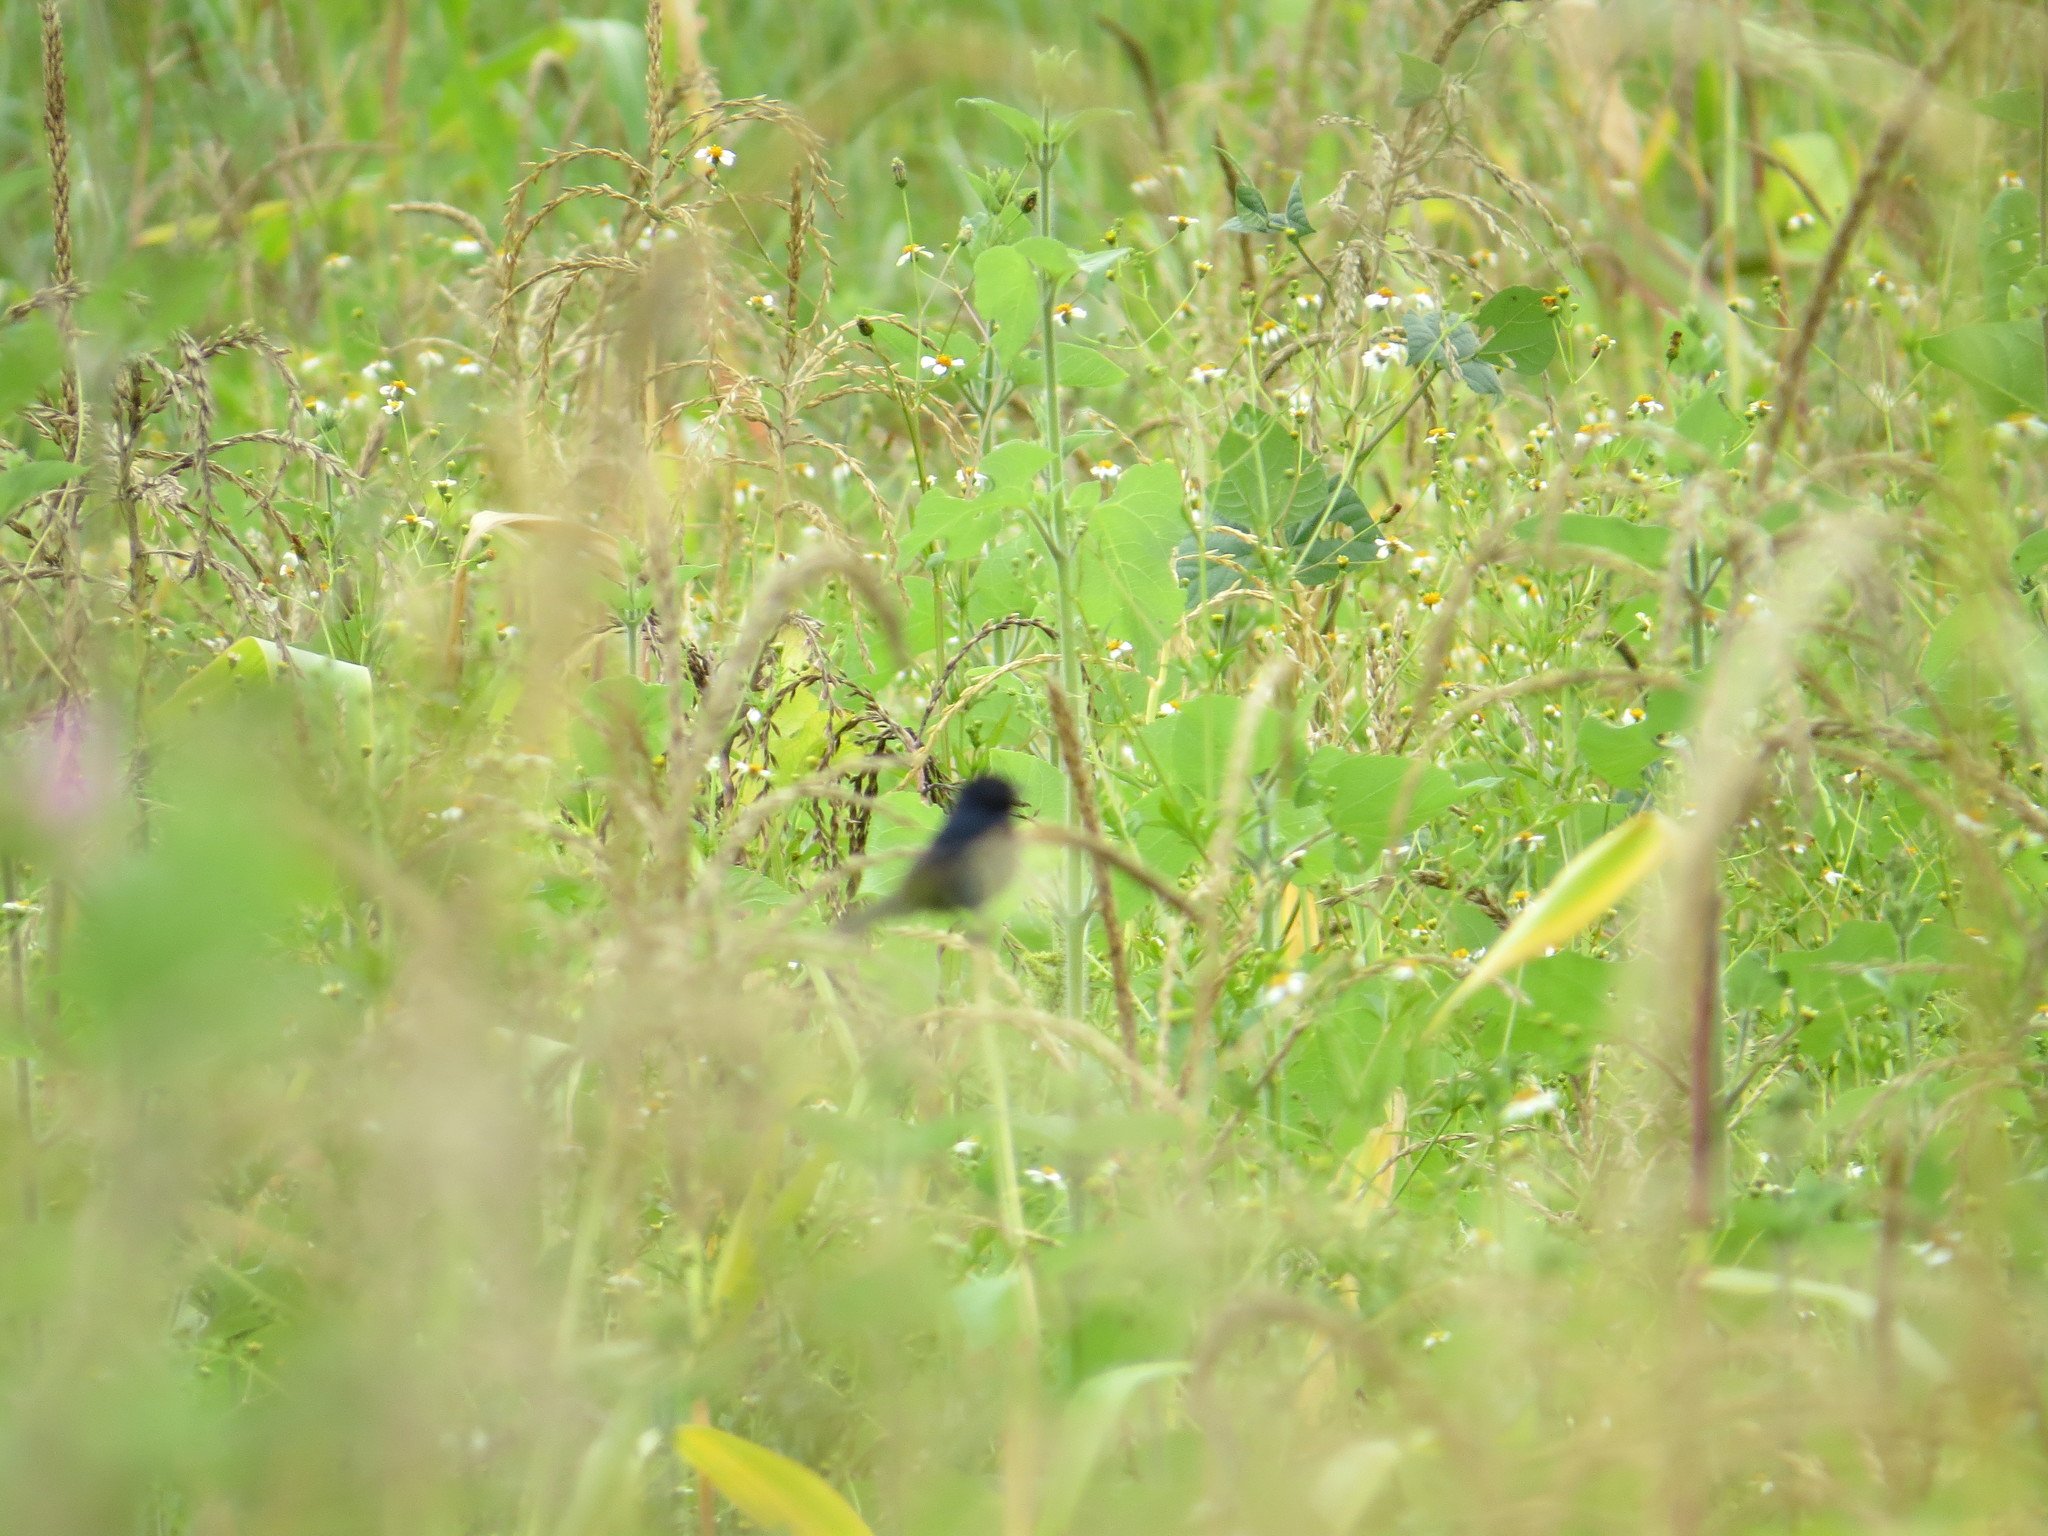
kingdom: Animalia
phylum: Chordata
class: Aves
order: Passeriformes
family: Thraupidae
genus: Volatinia
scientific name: Volatinia jacarina
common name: Blue-black grassquit
